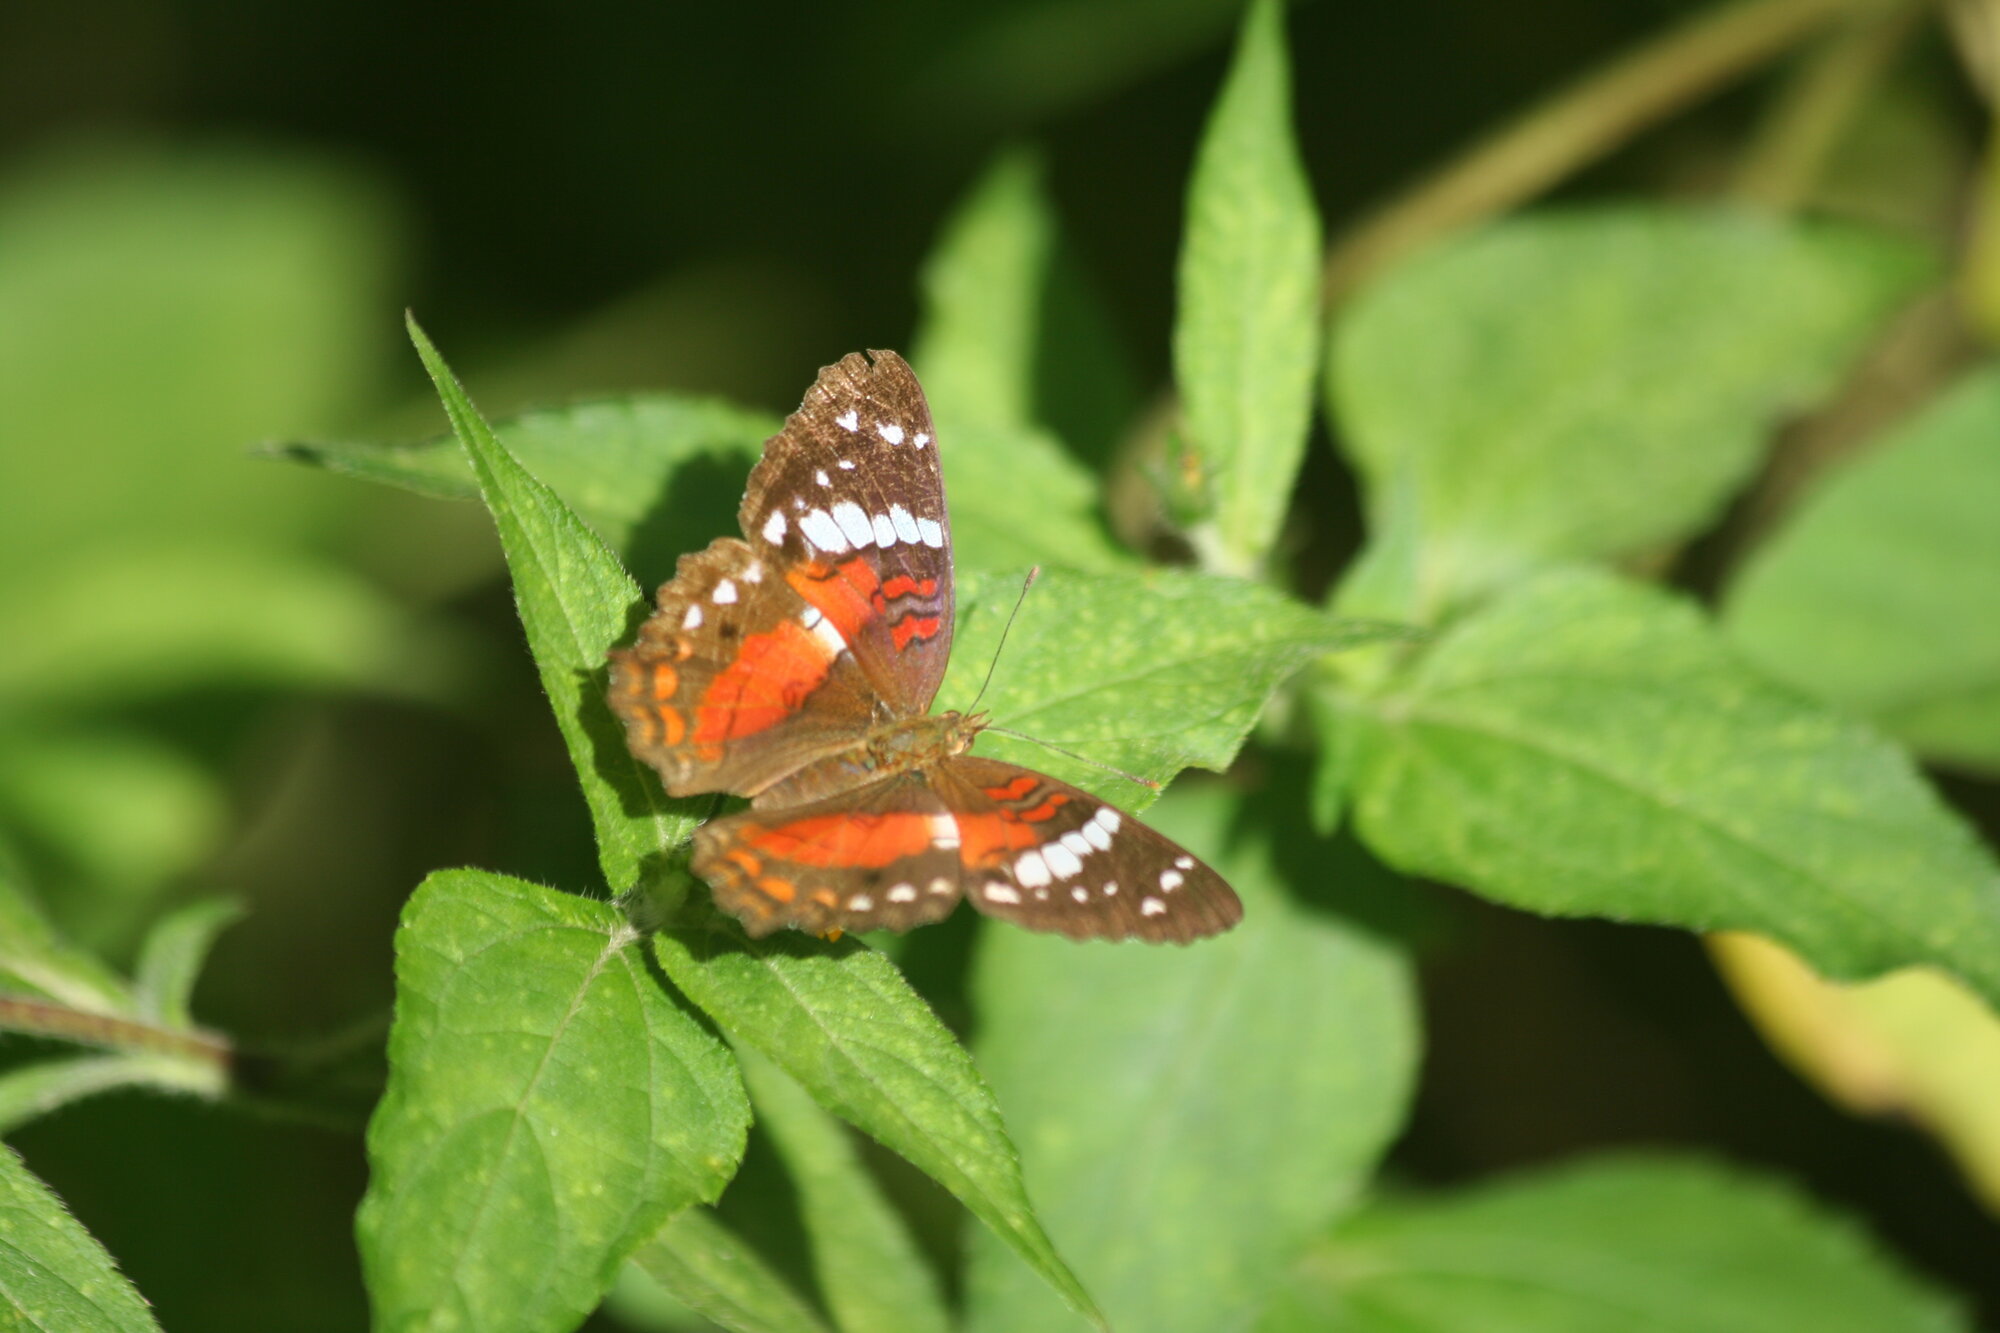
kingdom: Animalia
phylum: Arthropoda
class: Insecta
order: Lepidoptera
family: Nymphalidae
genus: Anartia
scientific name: Anartia amathea
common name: Red peacock
